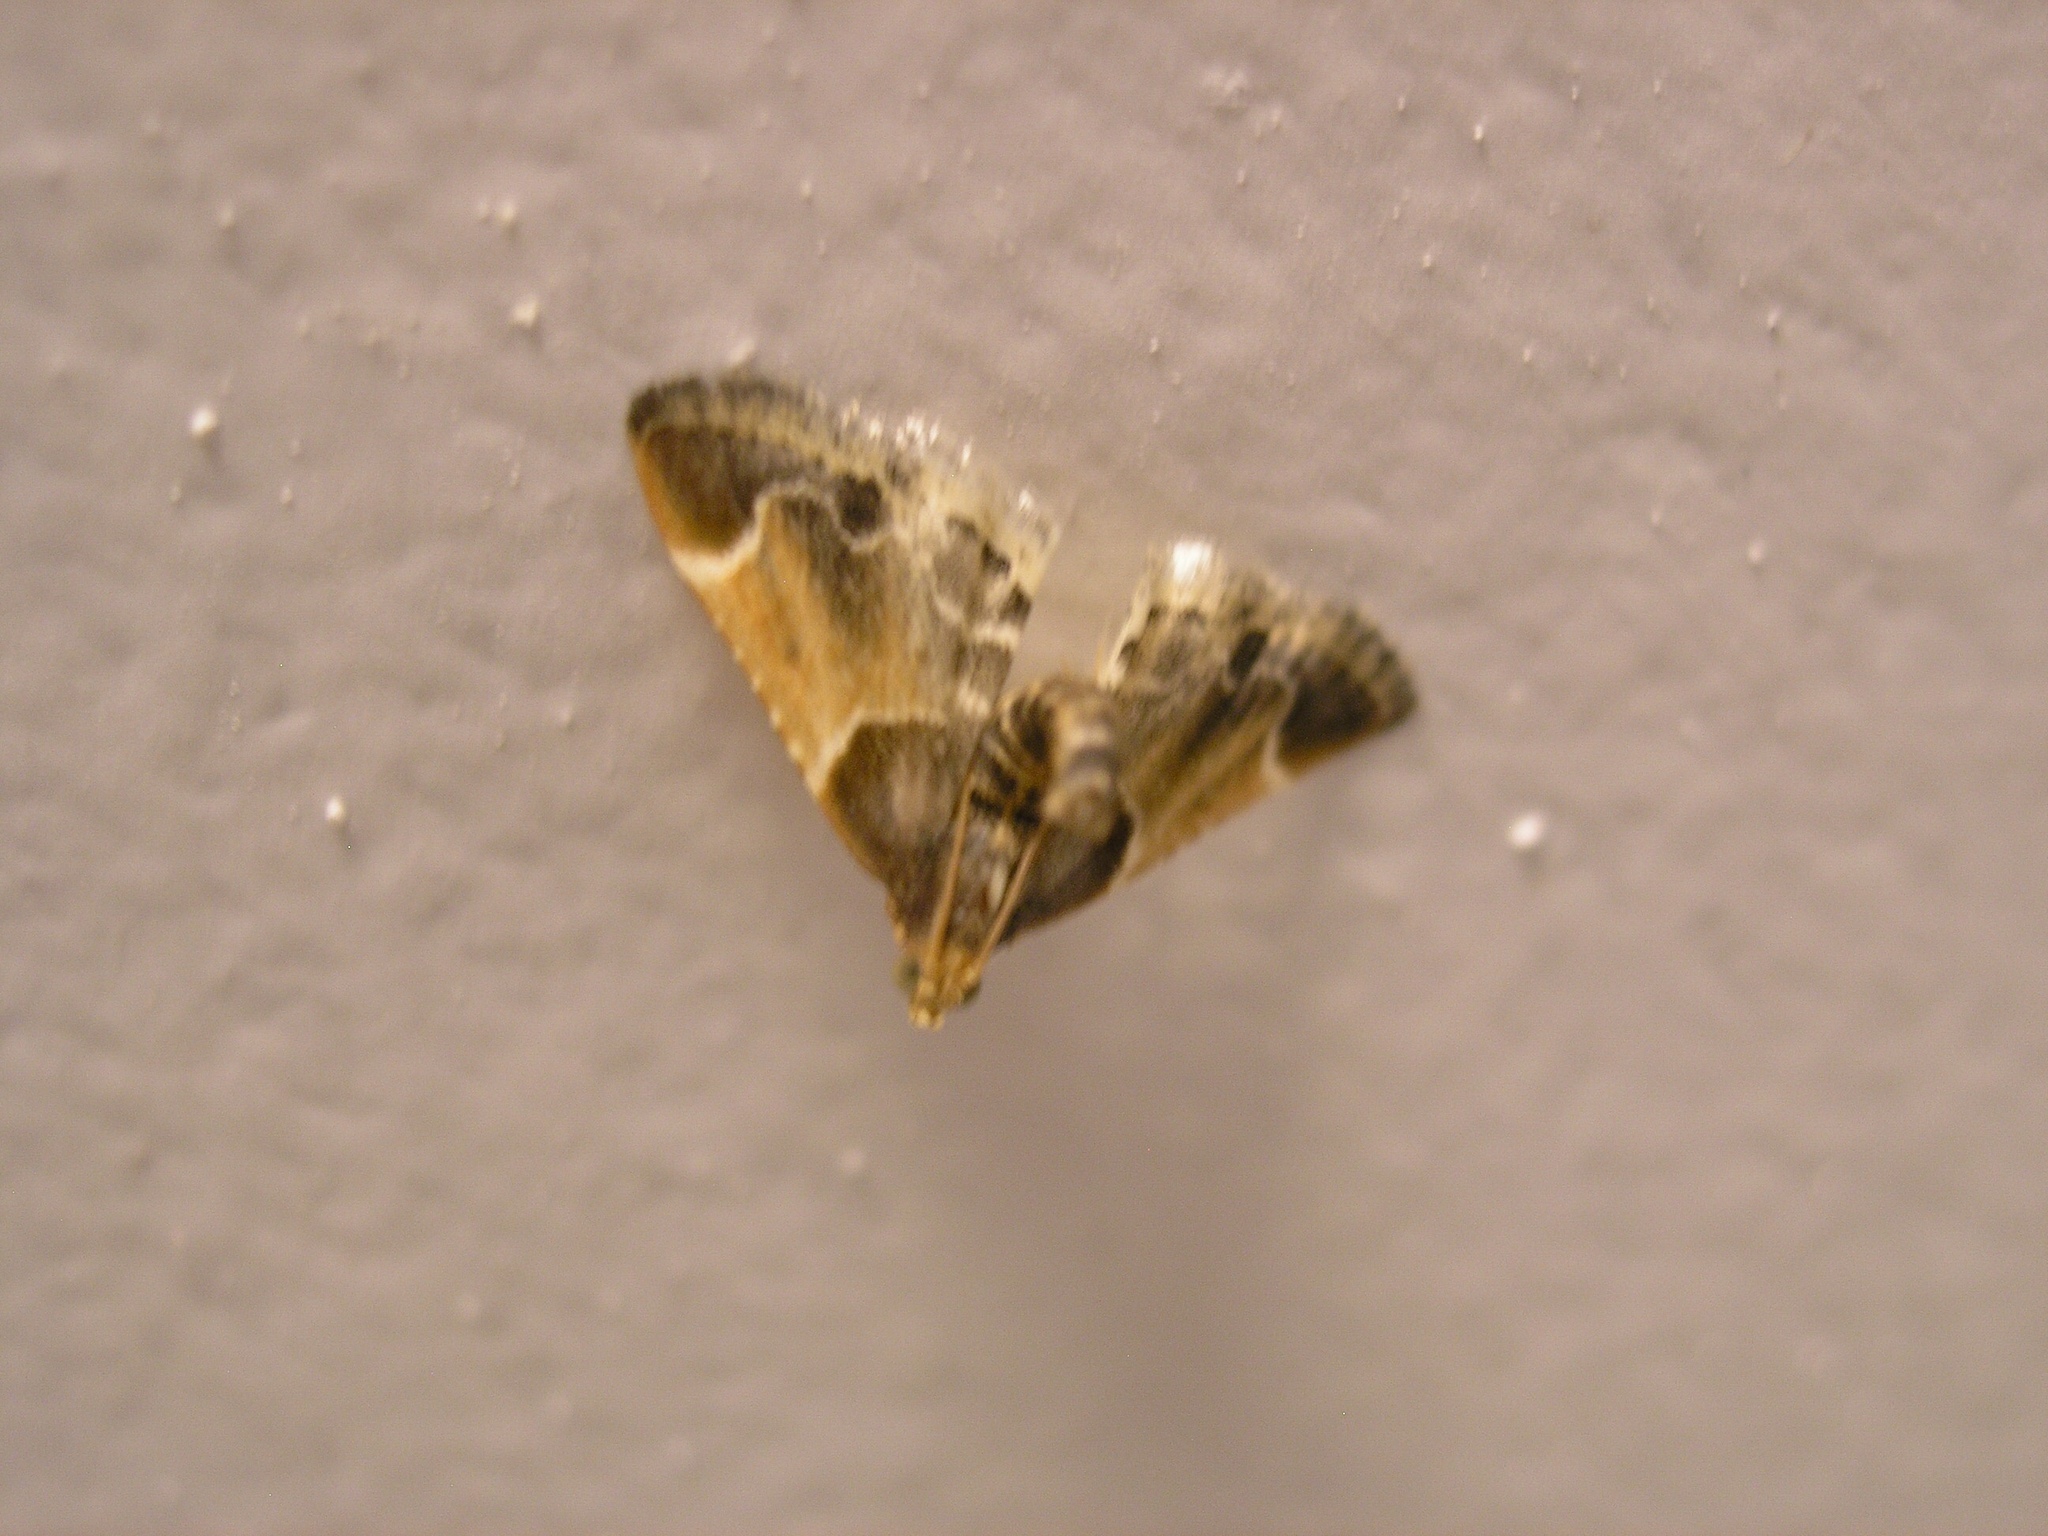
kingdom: Animalia
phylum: Arthropoda
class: Insecta
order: Lepidoptera
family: Pyralidae
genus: Pyralis
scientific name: Pyralis farinalis
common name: Meal moth
